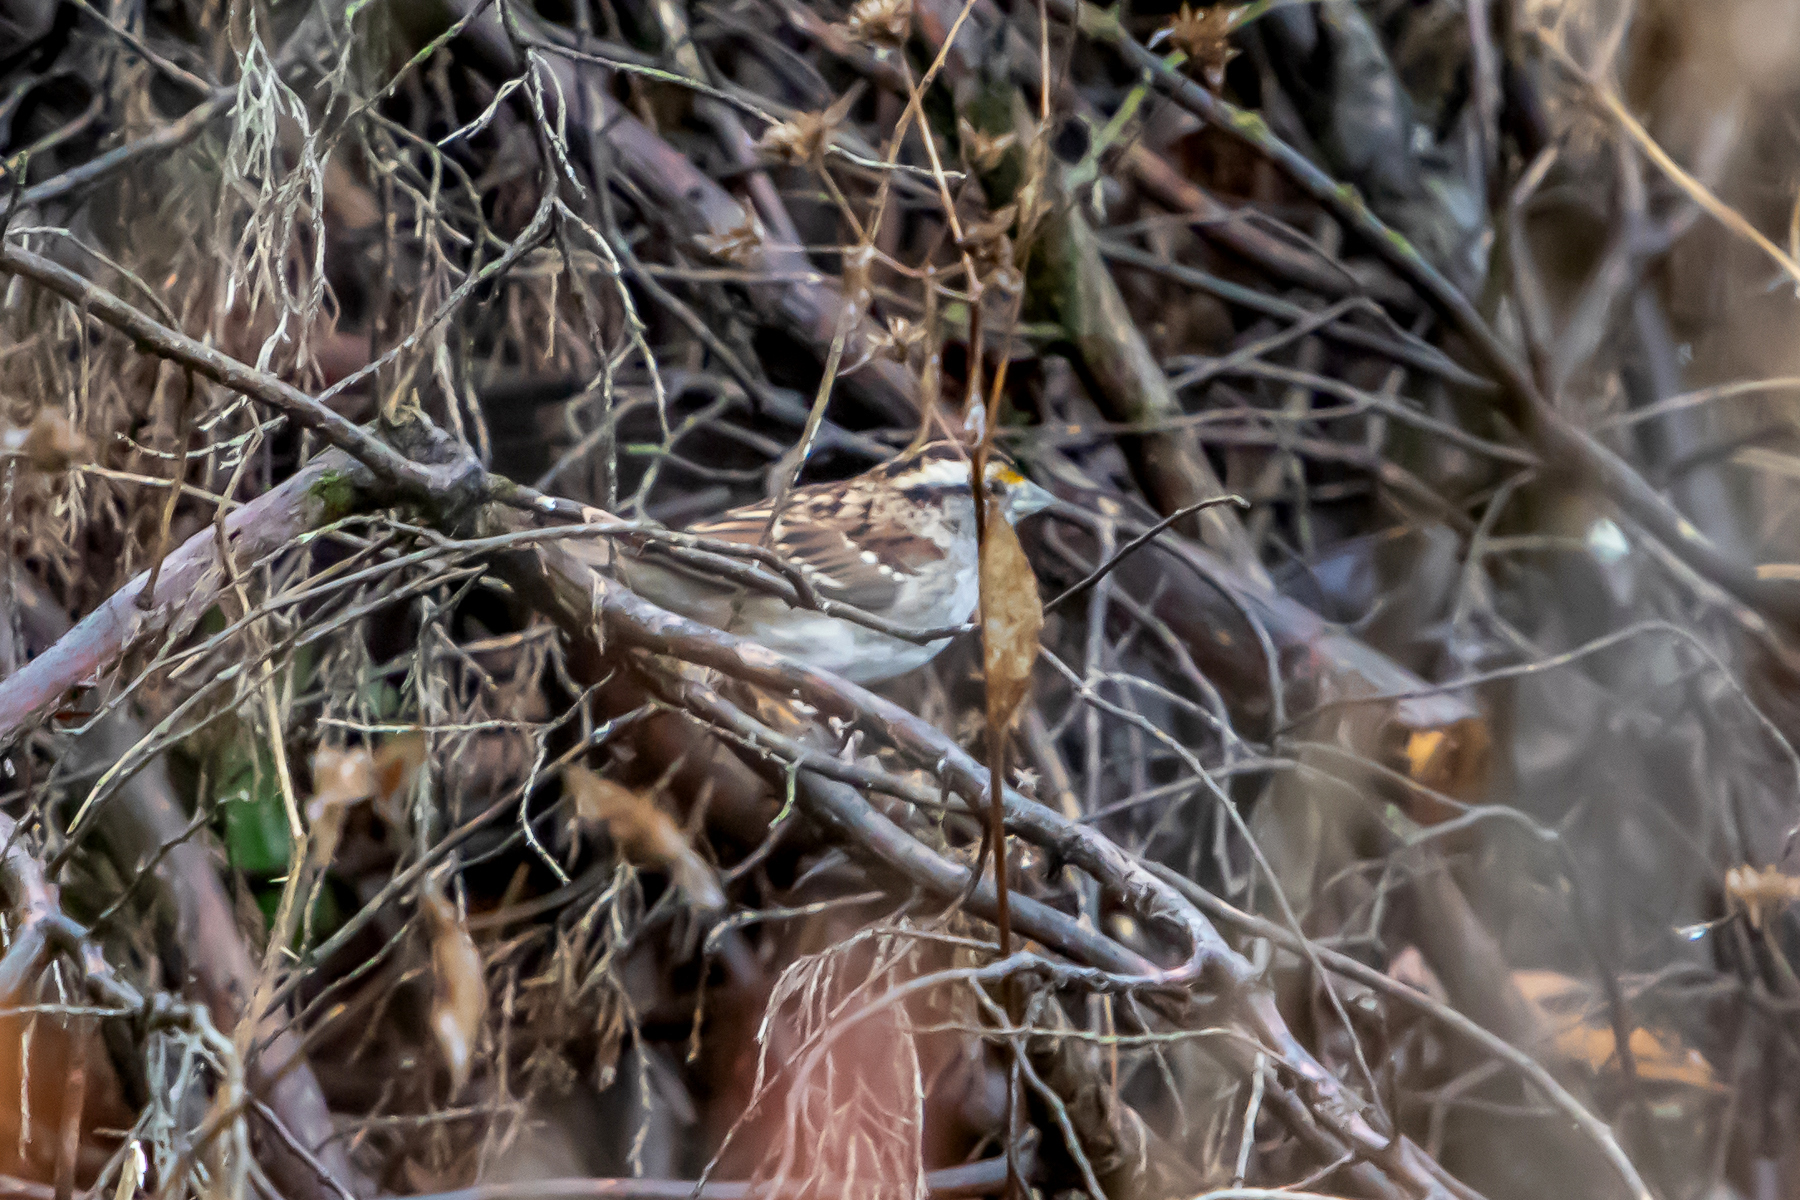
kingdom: Animalia
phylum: Chordata
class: Aves
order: Passeriformes
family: Passerellidae
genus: Zonotrichia
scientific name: Zonotrichia albicollis
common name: White-throated sparrow
